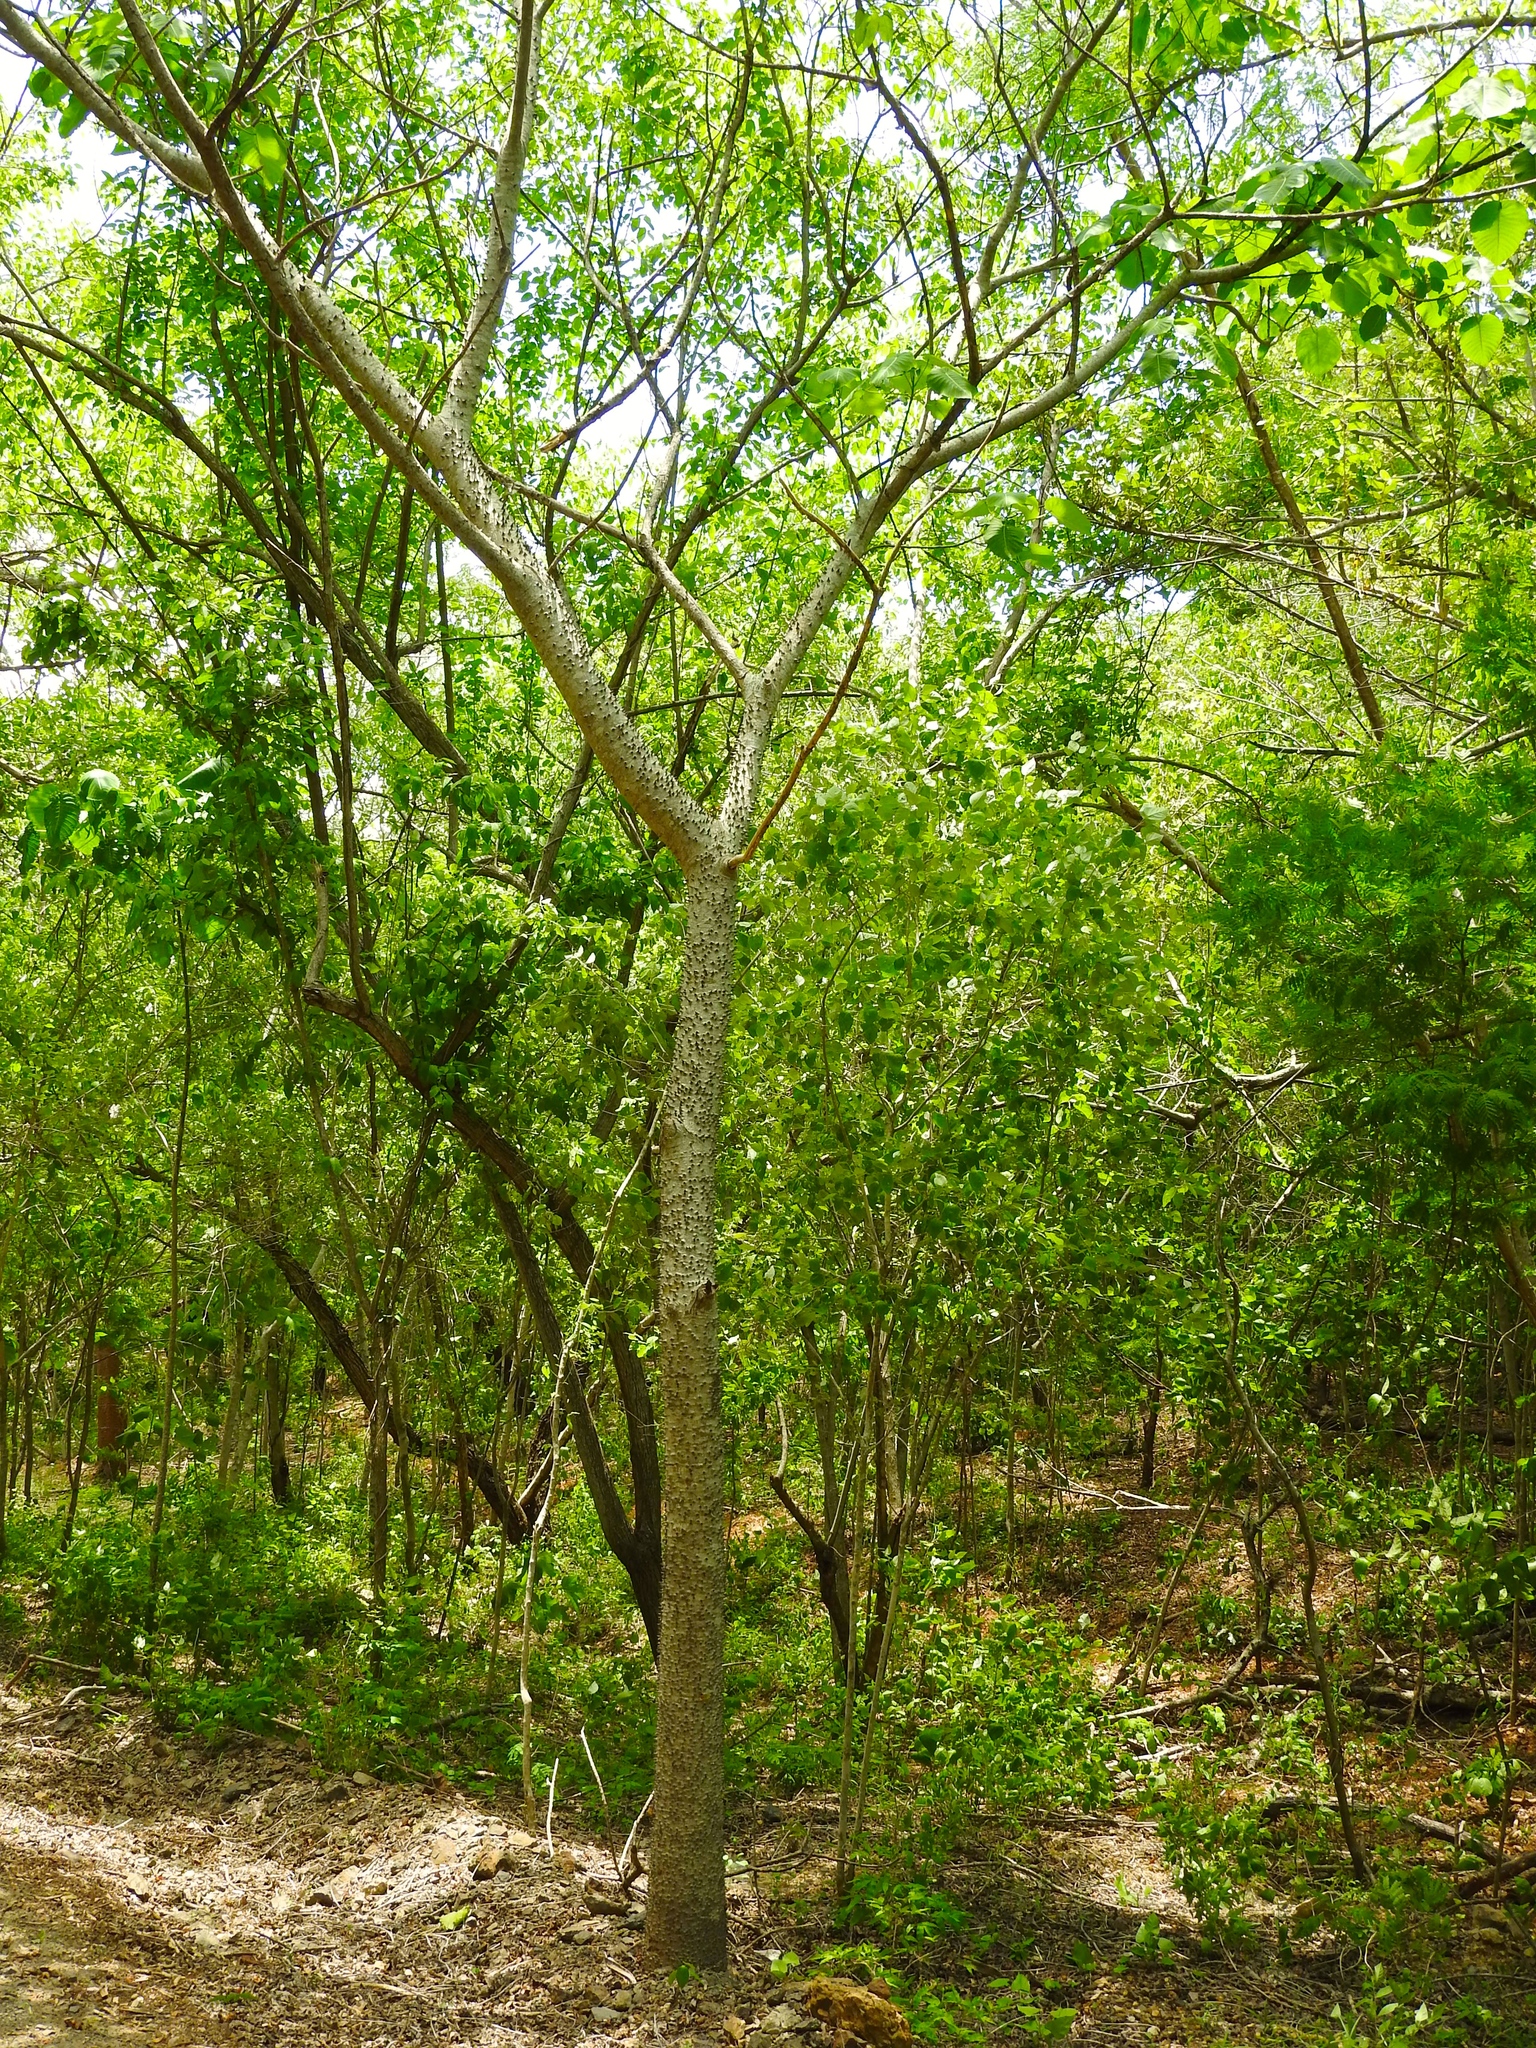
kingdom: Plantae
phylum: Tracheophyta
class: Magnoliopsida
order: Malpighiales
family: Euphorbiaceae
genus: Hura
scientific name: Hura polyandra
